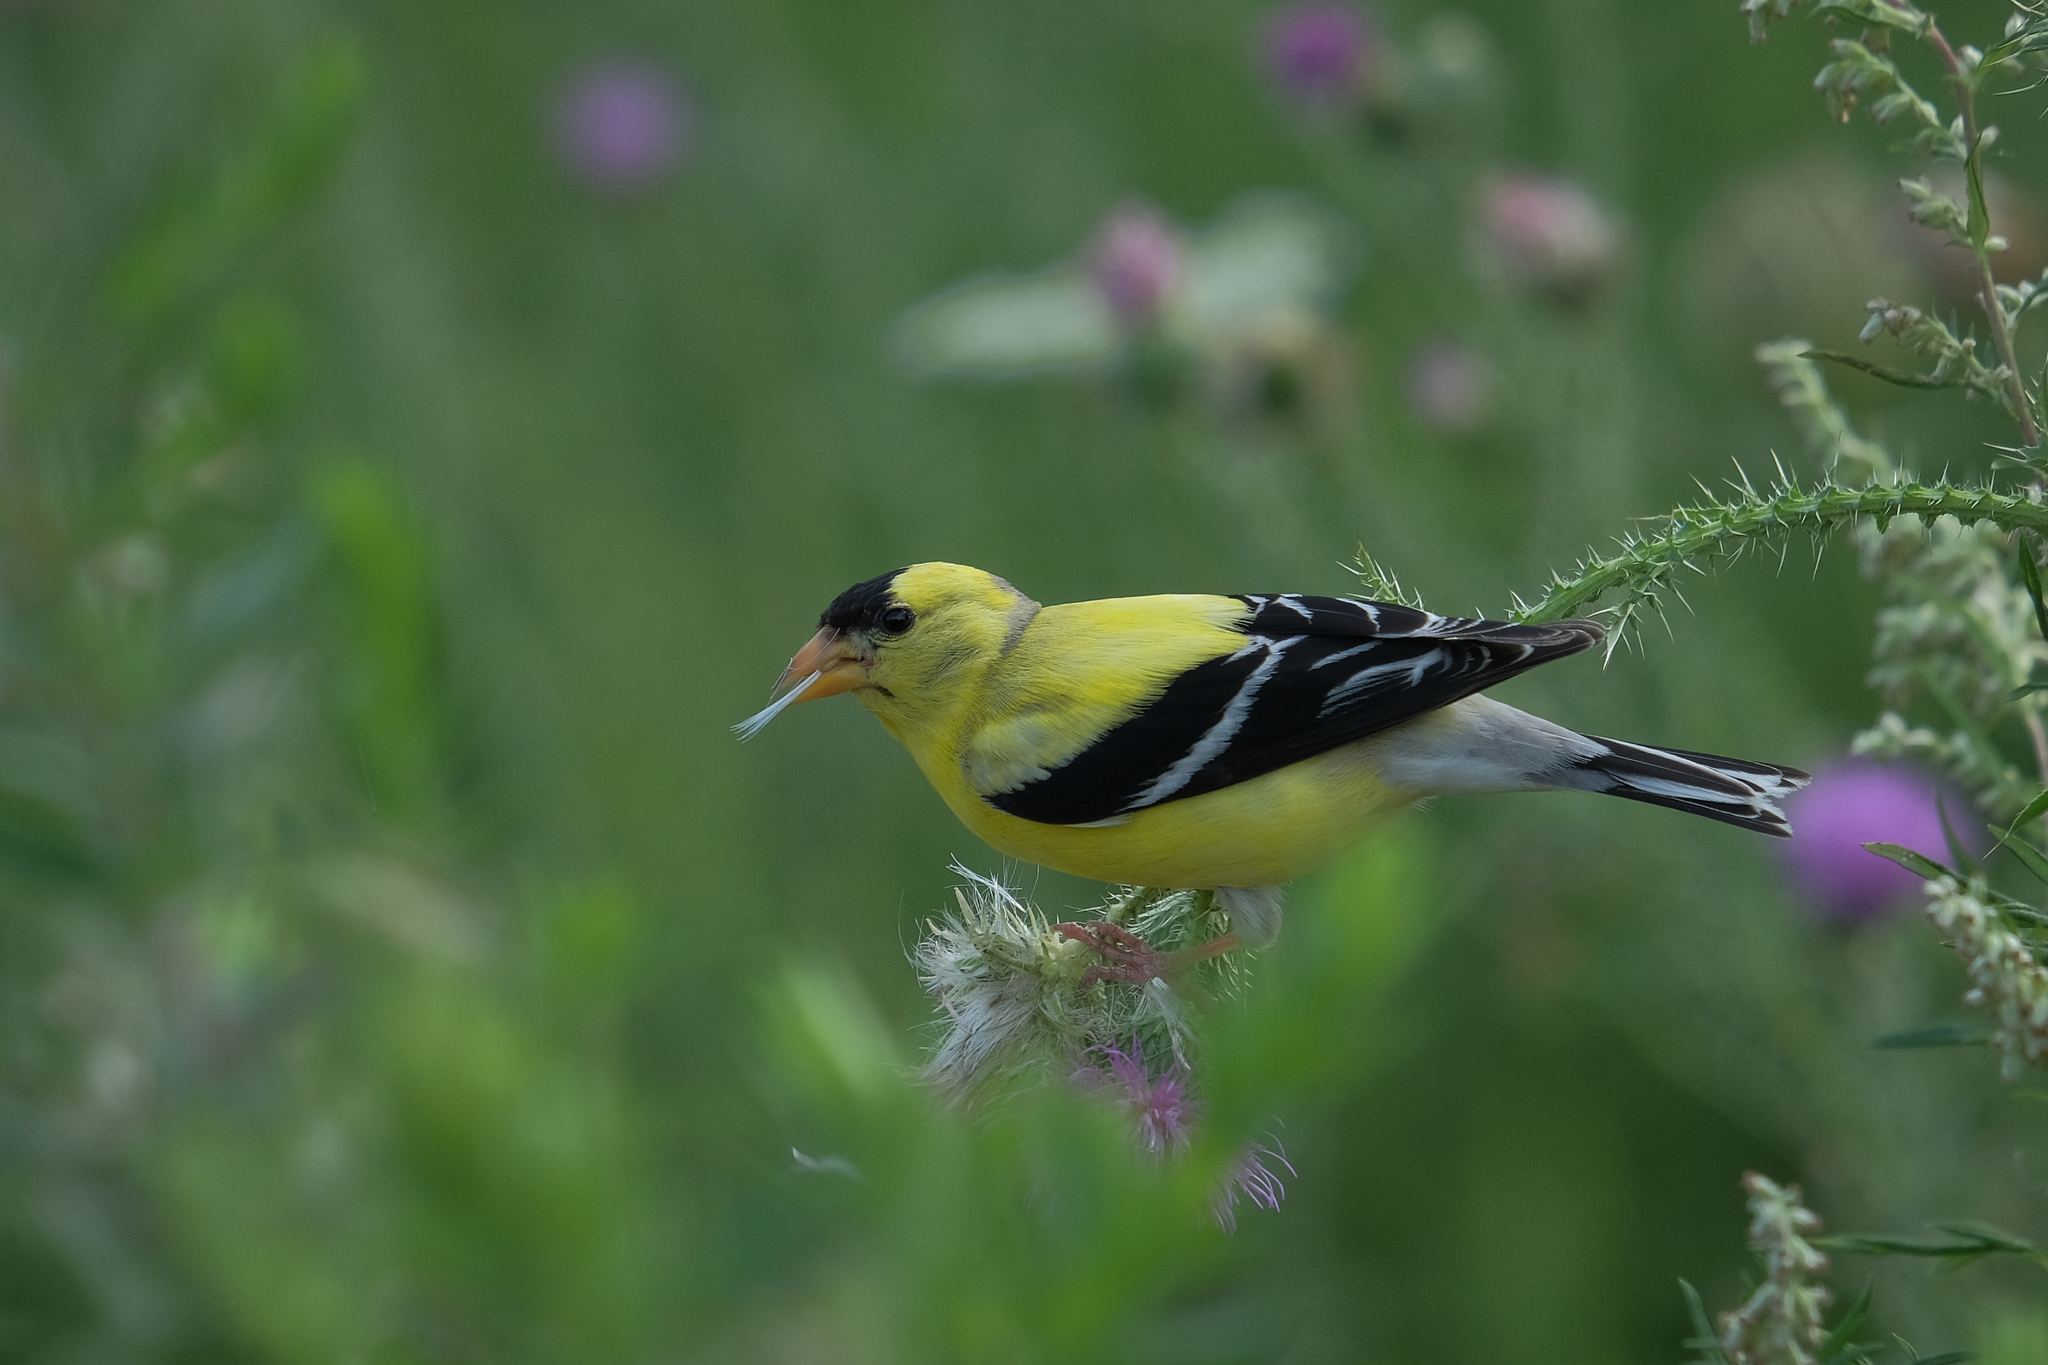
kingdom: Animalia
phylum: Chordata
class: Aves
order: Passeriformes
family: Fringillidae
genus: Spinus
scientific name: Spinus tristis
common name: American goldfinch
